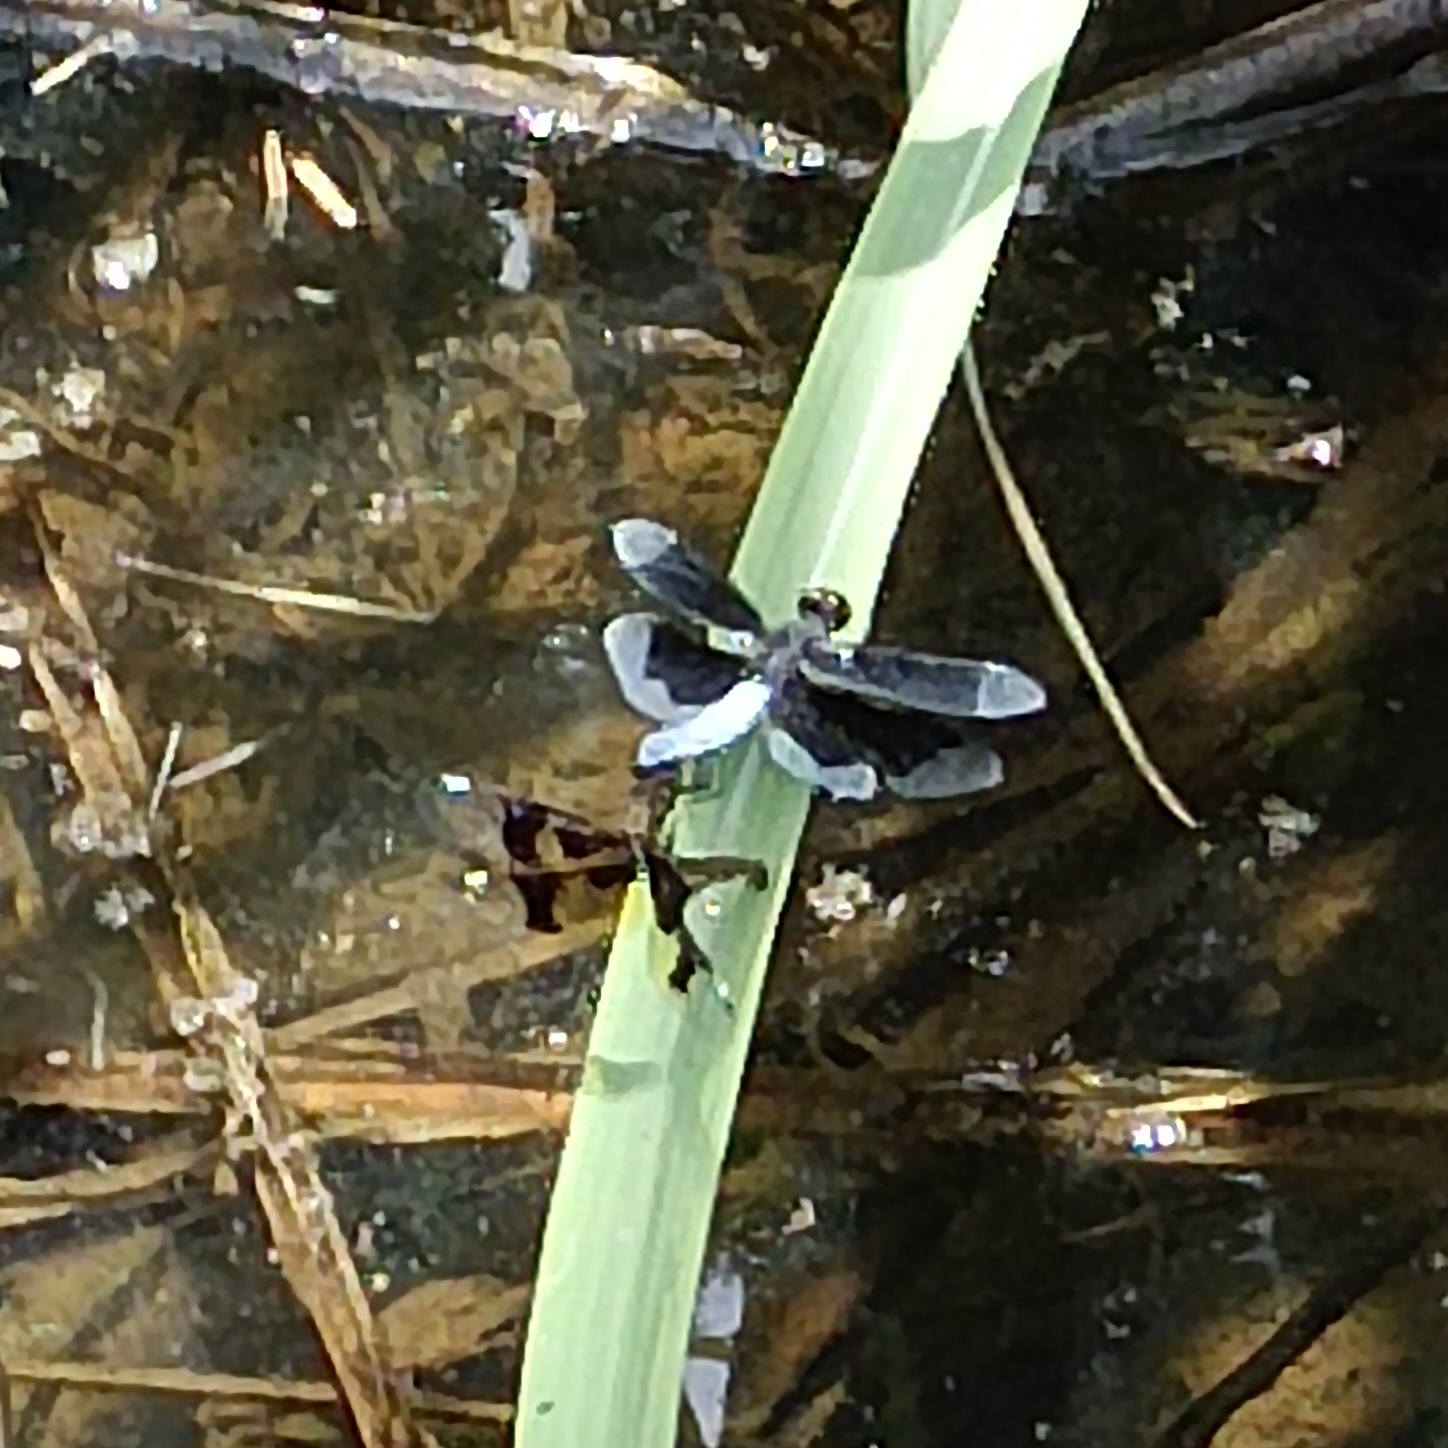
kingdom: Animalia
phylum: Arthropoda
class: Insecta
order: Odonata
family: Libellulidae
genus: Palpopleura
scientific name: Palpopleura lucia
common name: Lucia widow
